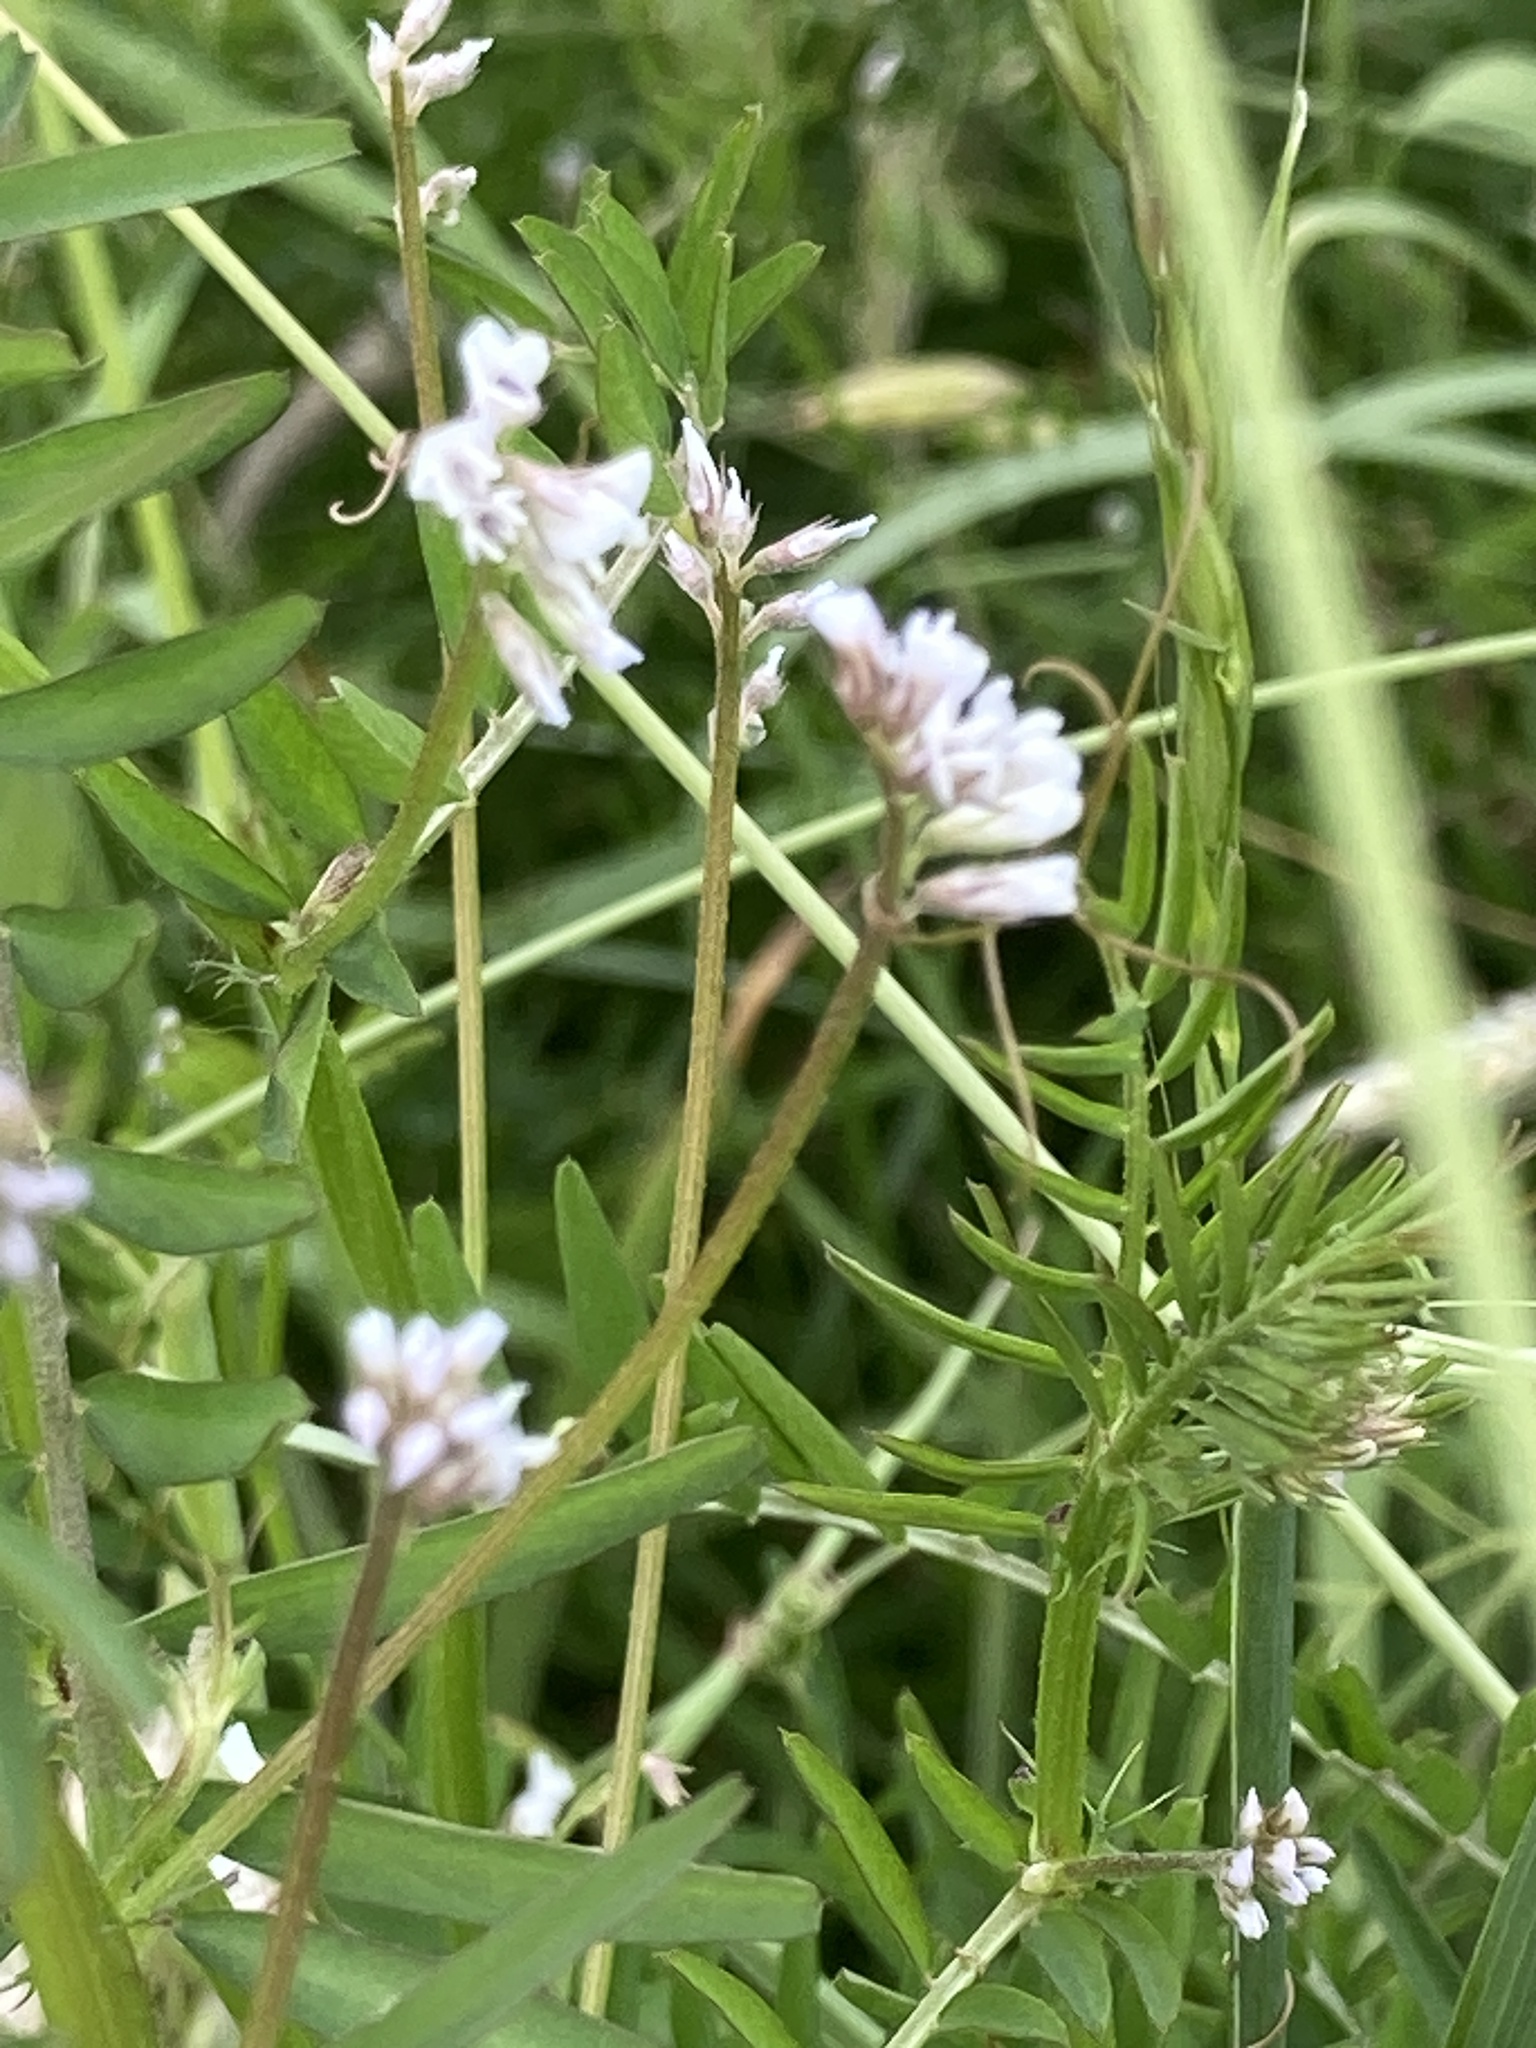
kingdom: Plantae
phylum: Tracheophyta
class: Magnoliopsida
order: Fabales
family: Fabaceae
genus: Vicia
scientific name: Vicia hirsuta
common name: Tiny vetch
